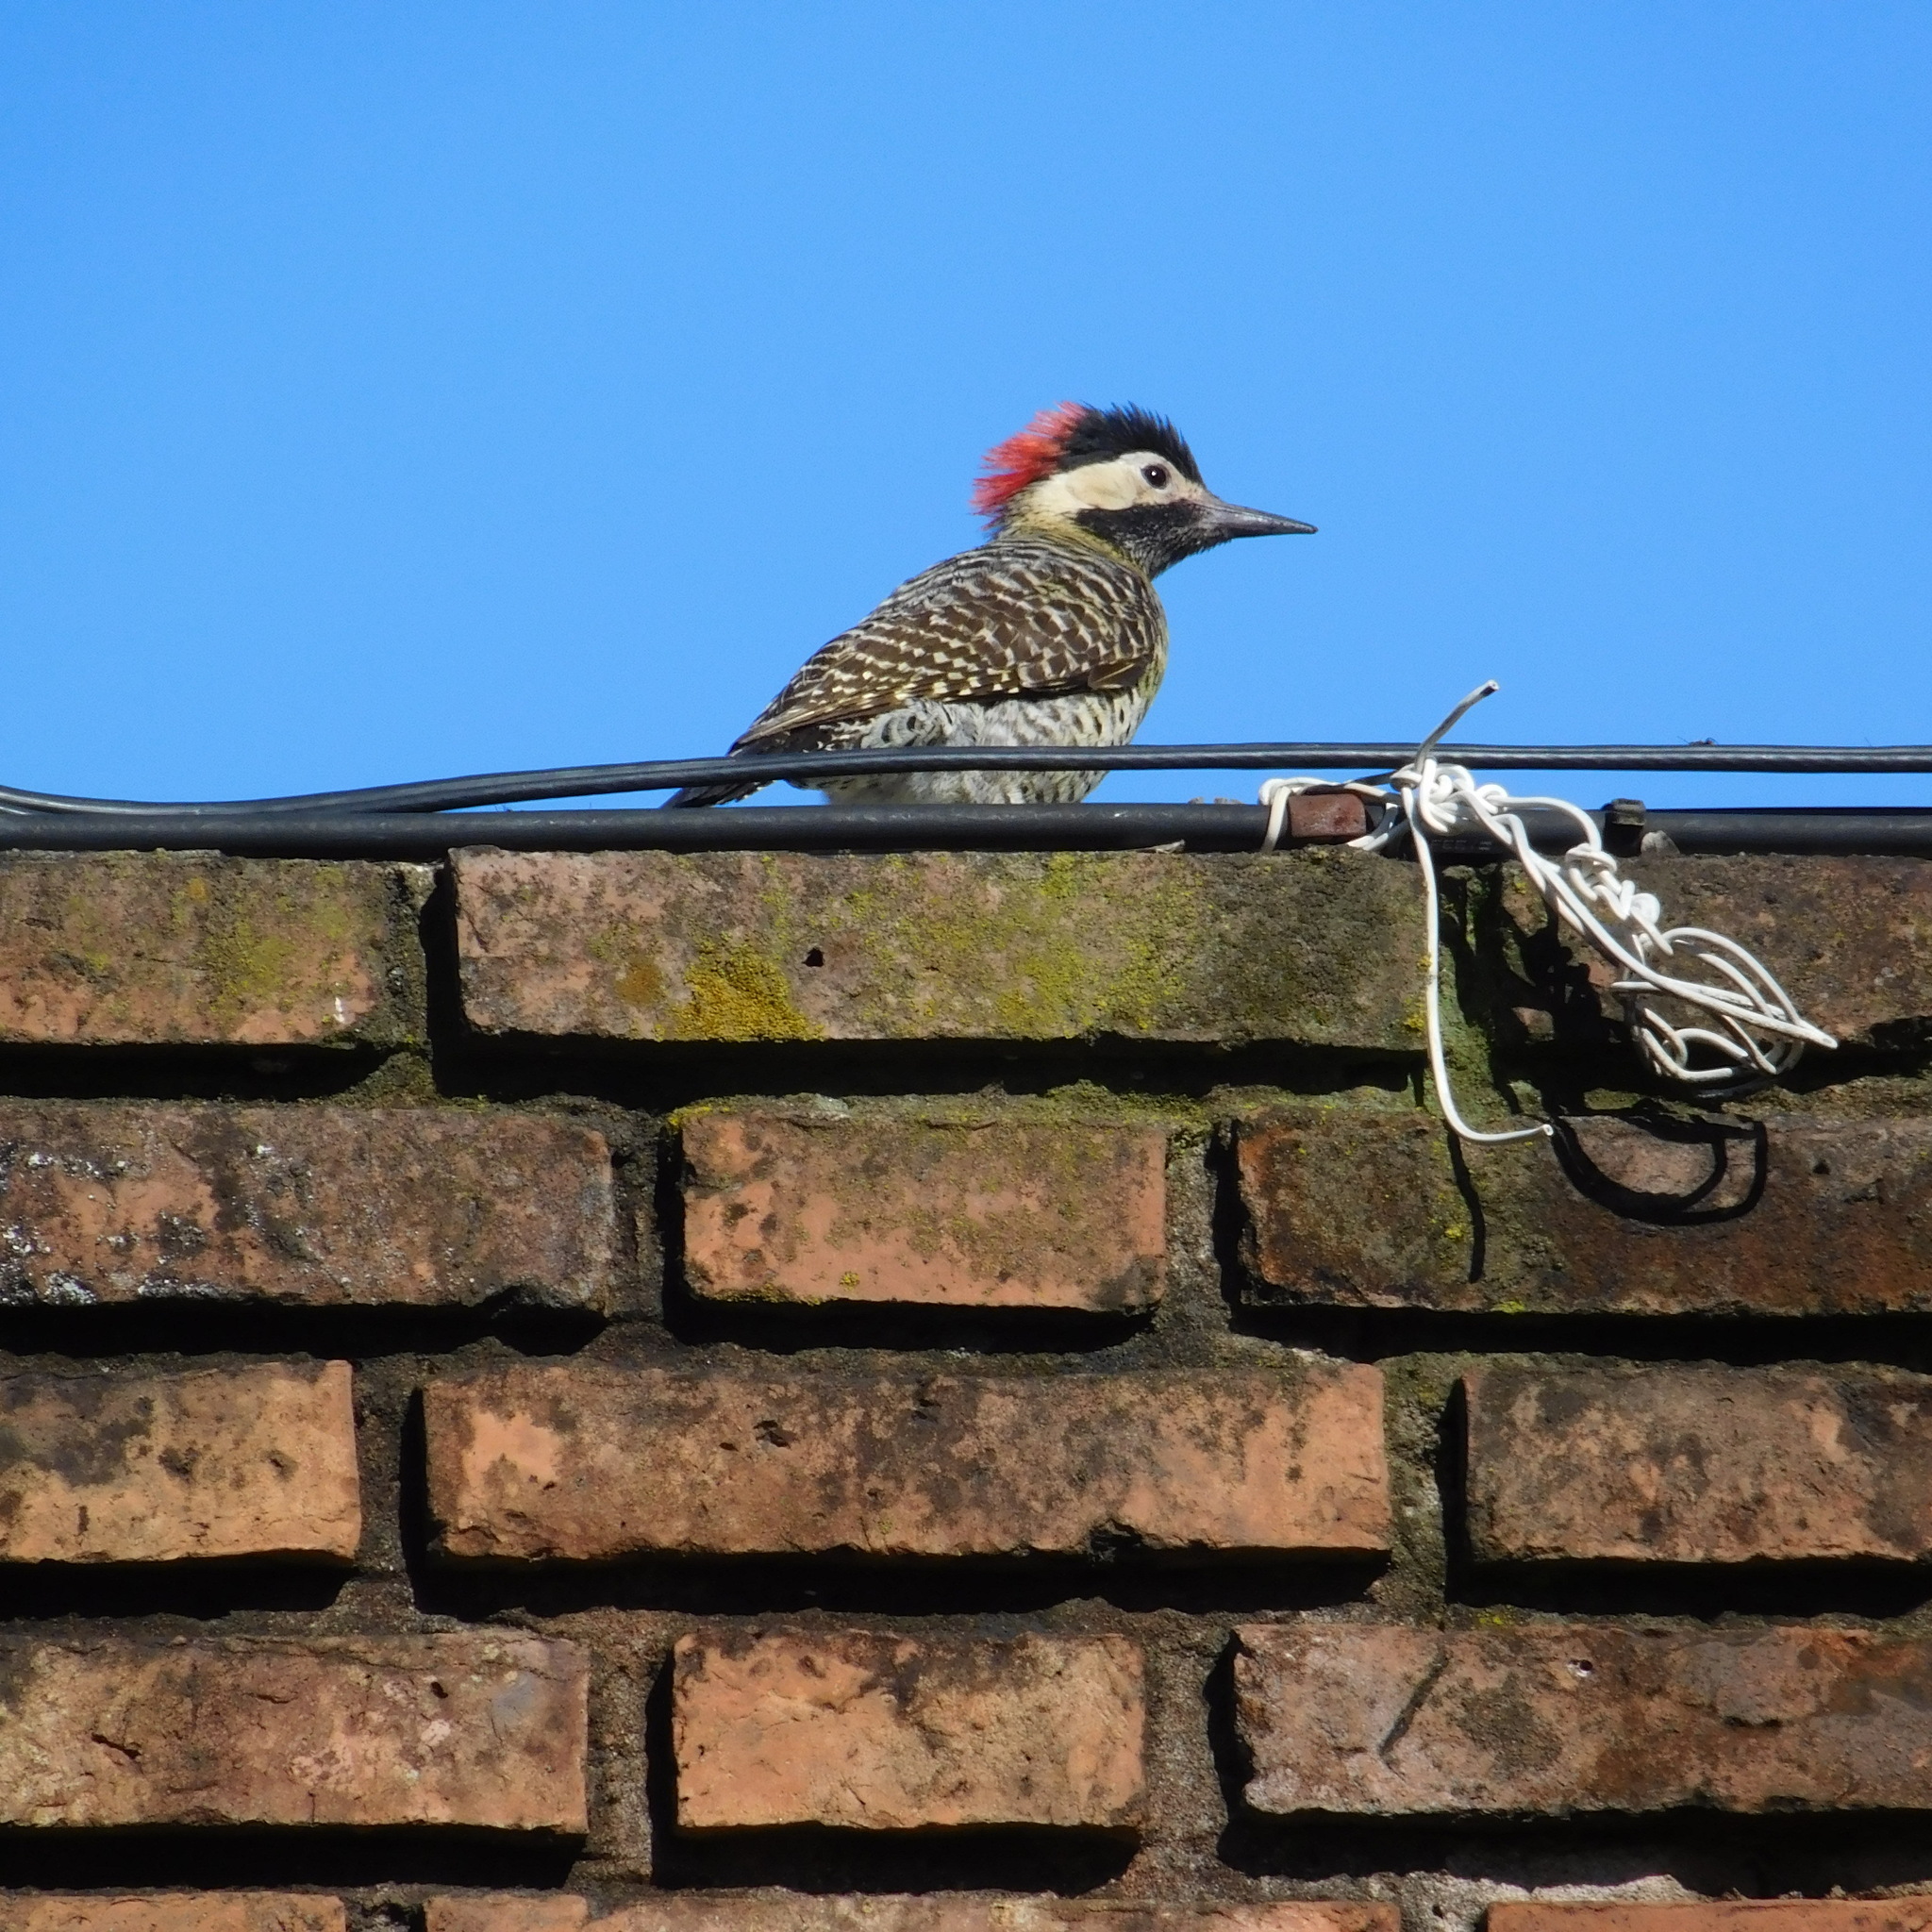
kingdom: Animalia
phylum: Chordata
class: Aves
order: Piciformes
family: Picidae
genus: Colaptes
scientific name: Colaptes melanochloros
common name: Green-barred woodpecker
